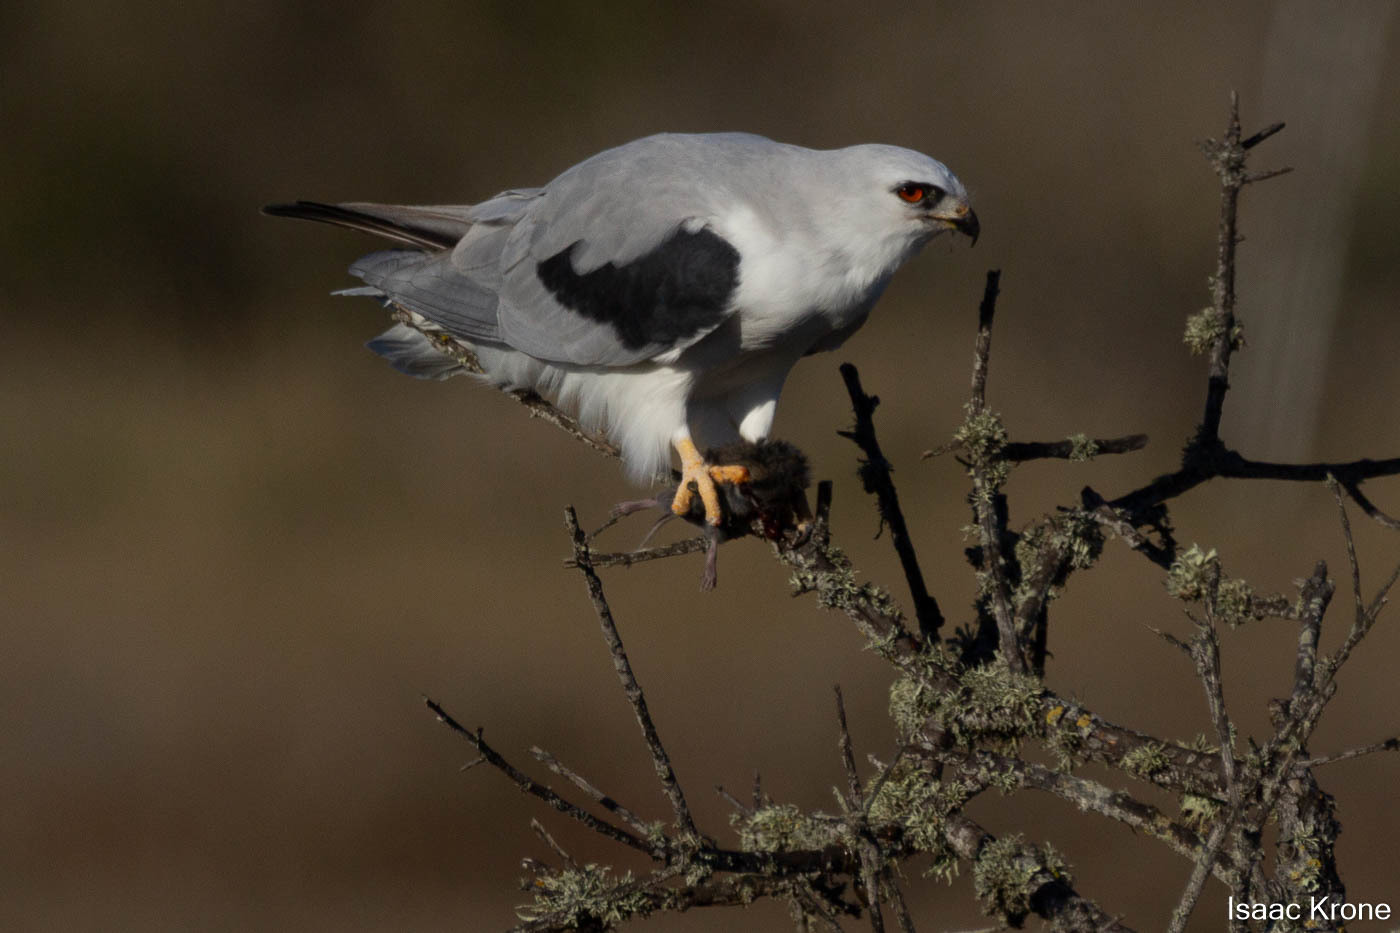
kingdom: Animalia
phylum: Chordata
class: Mammalia
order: Rodentia
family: Cricetidae
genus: Microtus
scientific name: Microtus californicus
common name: California vole
